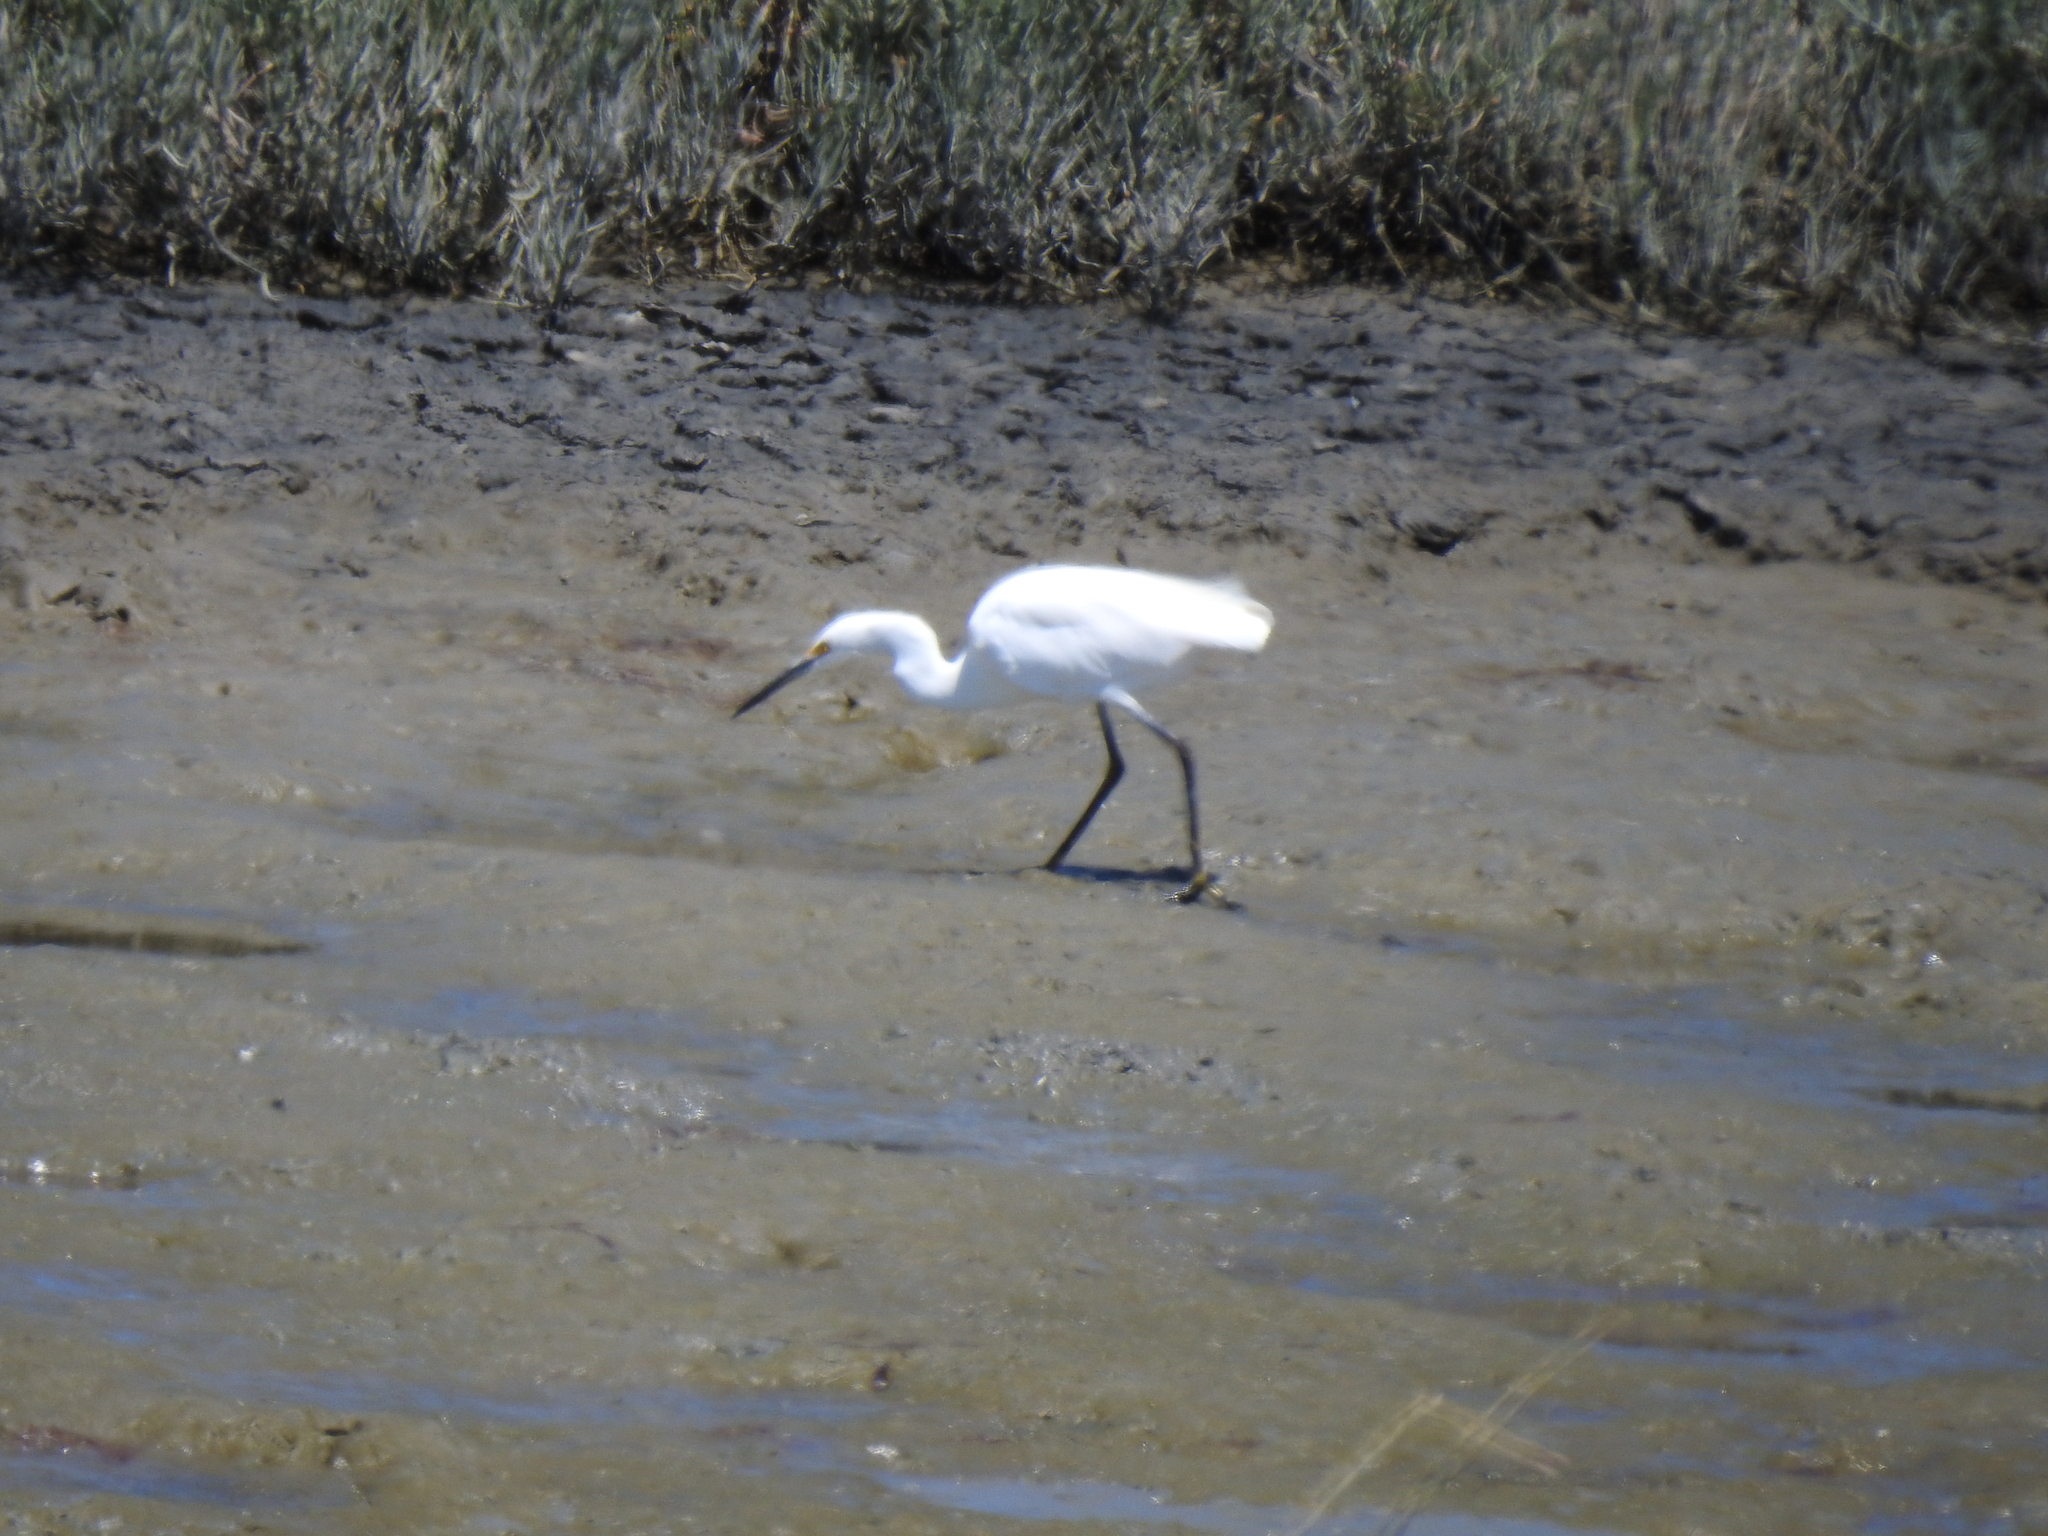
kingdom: Animalia
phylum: Chordata
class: Aves
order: Pelecaniformes
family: Ardeidae
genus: Egretta
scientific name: Egretta thula
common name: Snowy egret
